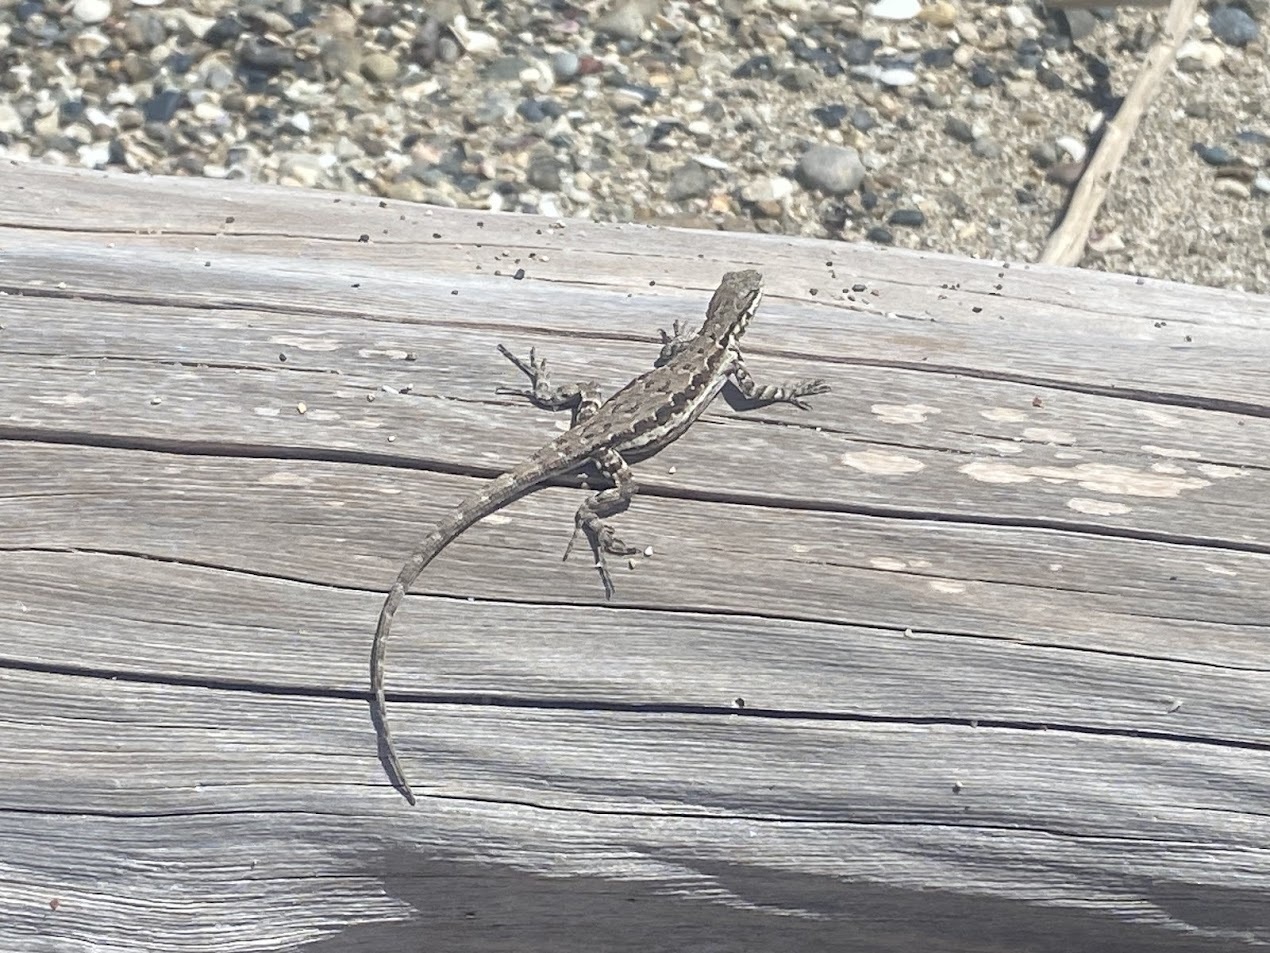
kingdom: Animalia
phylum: Chordata
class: Squamata
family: Phrynosomatidae
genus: Urosaurus
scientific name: Urosaurus ornatus
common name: Ornate tree lizard
